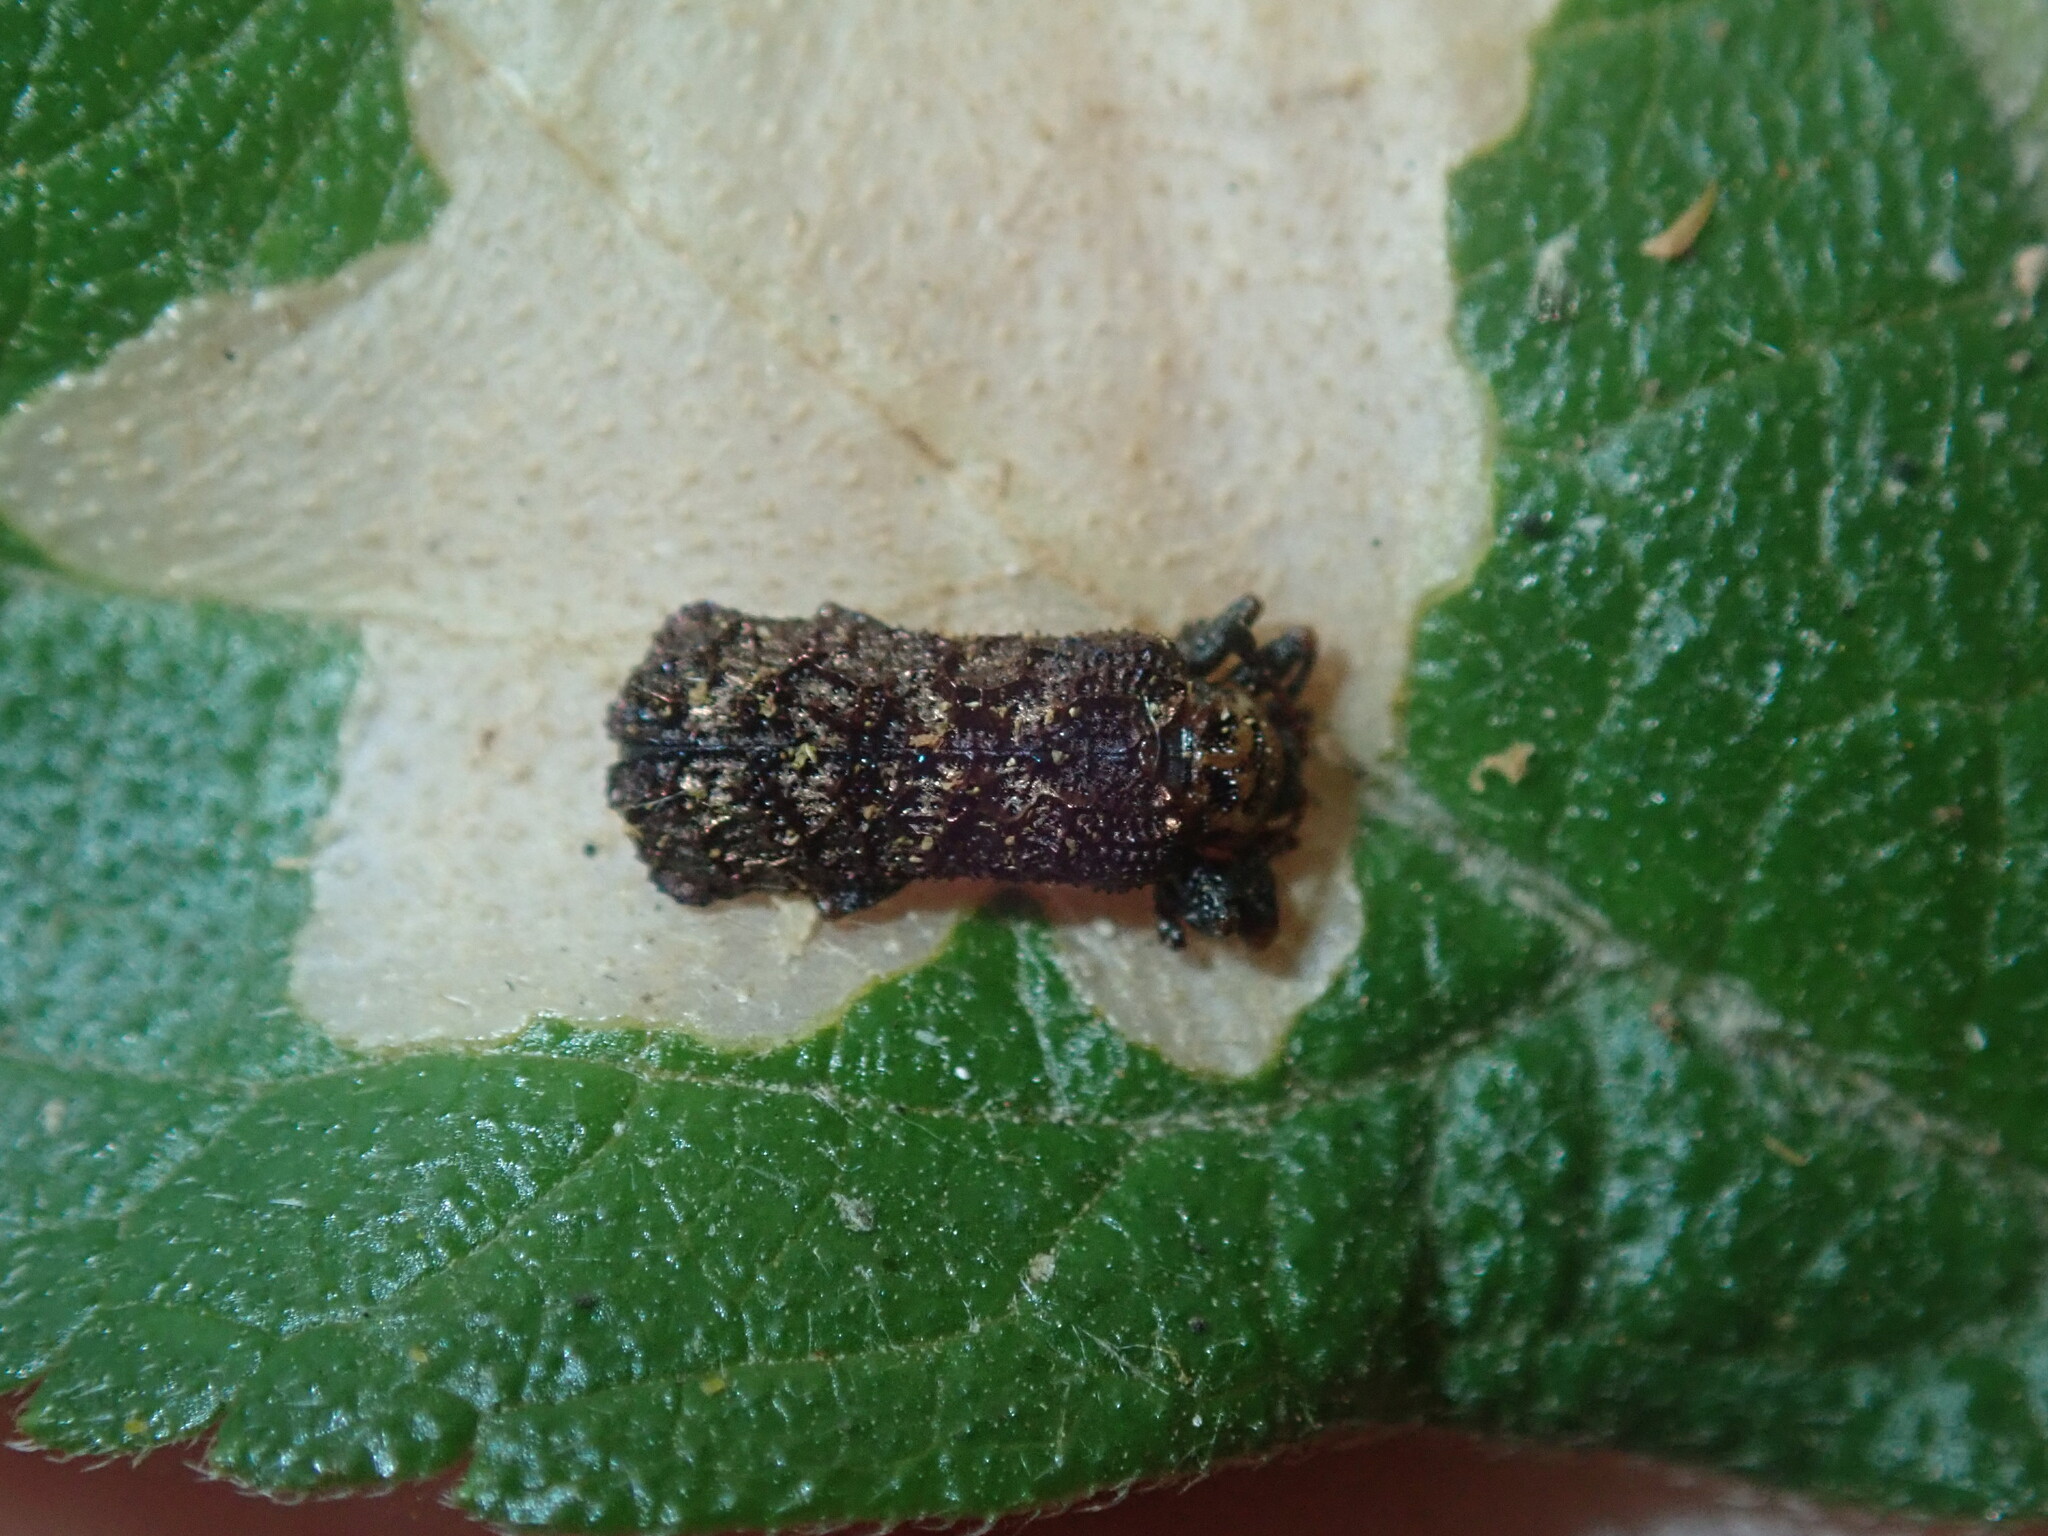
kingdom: Animalia
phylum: Arthropoda
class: Insecta
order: Coleoptera
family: Chrysomelidae
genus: Octotoma
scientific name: Octotoma scabripennis
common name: Beetle
